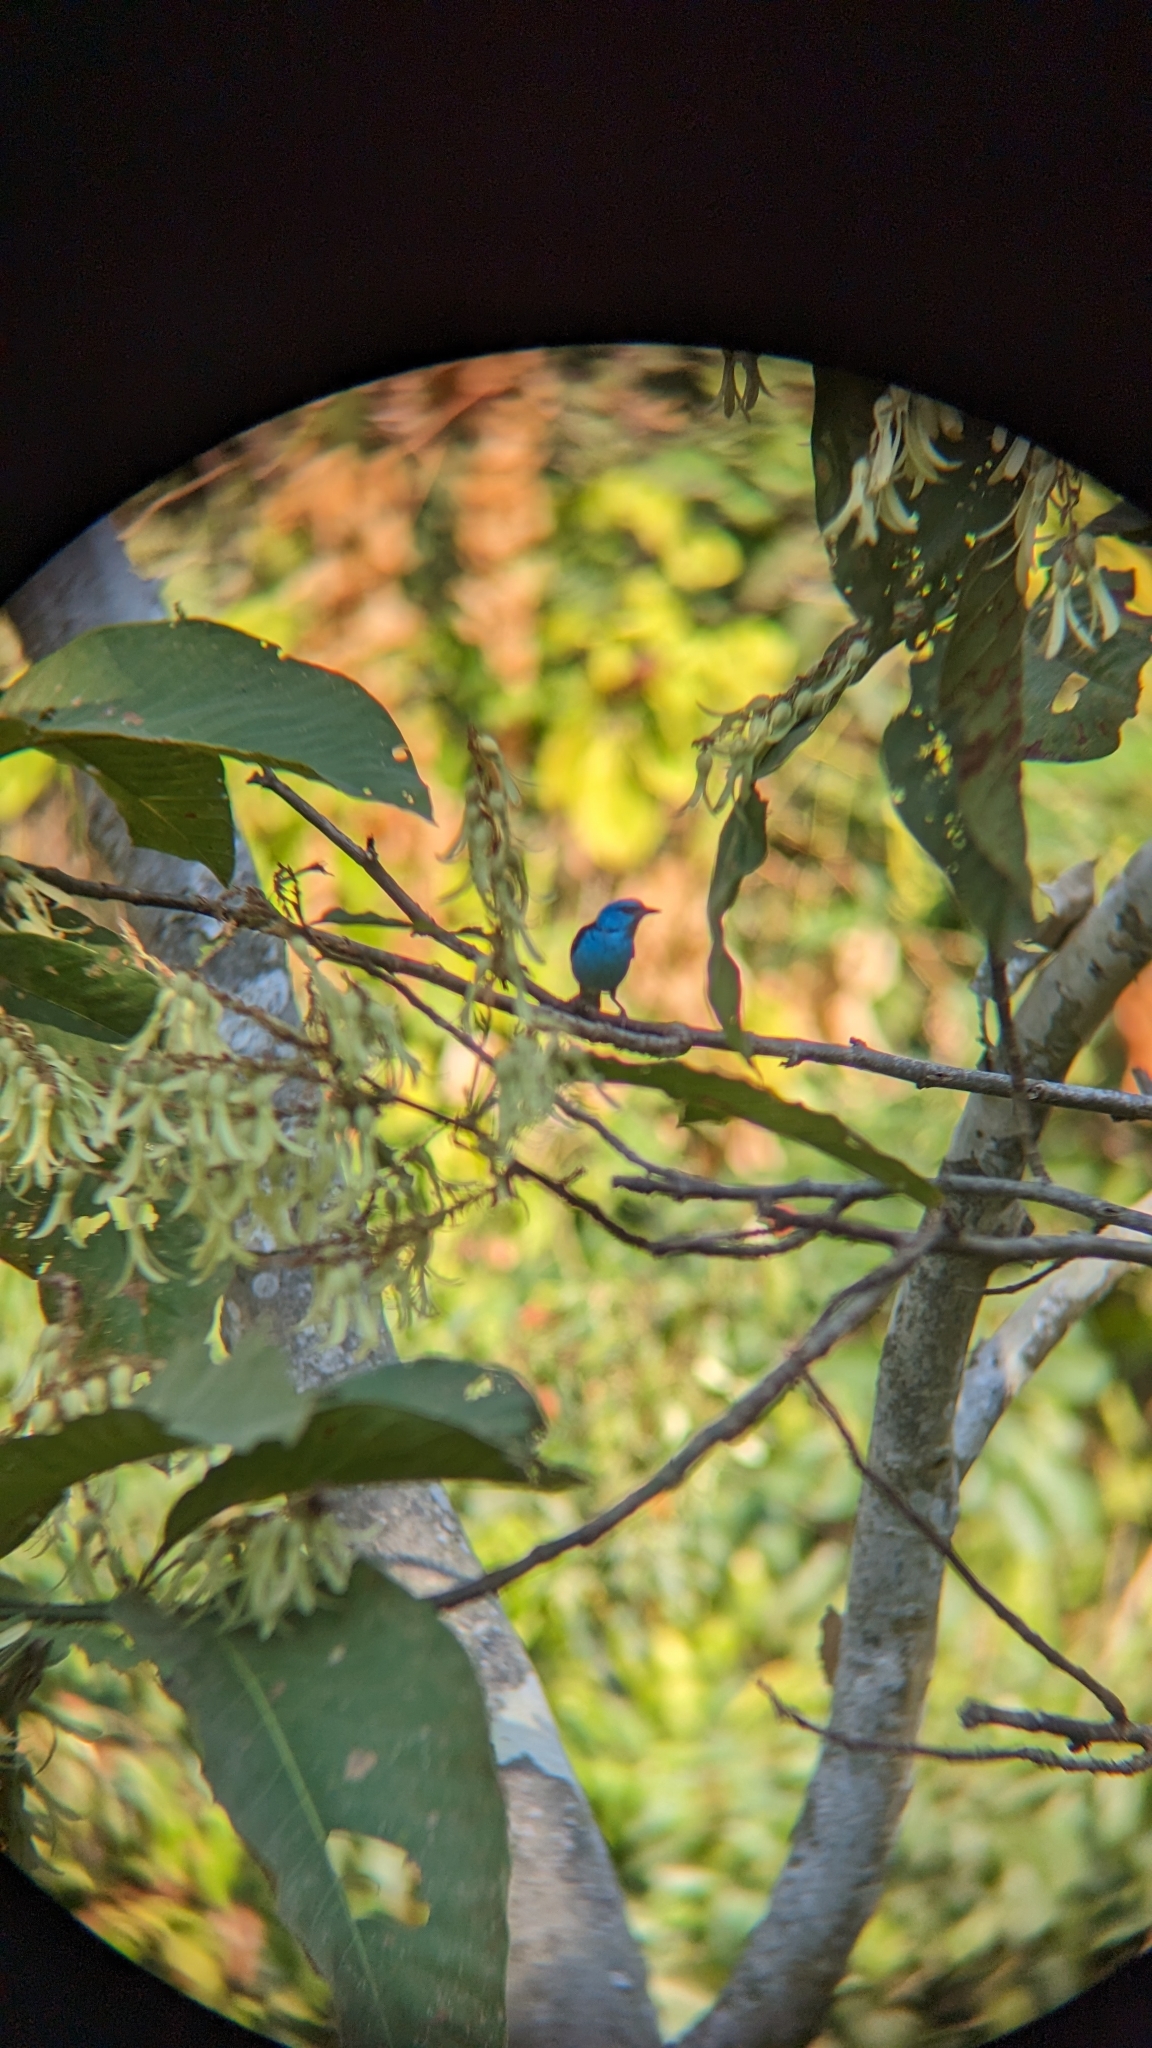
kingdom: Animalia
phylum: Chordata
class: Aves
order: Passeriformes
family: Thraupidae
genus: Dacnis
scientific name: Dacnis cayana
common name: Blue dacnis
